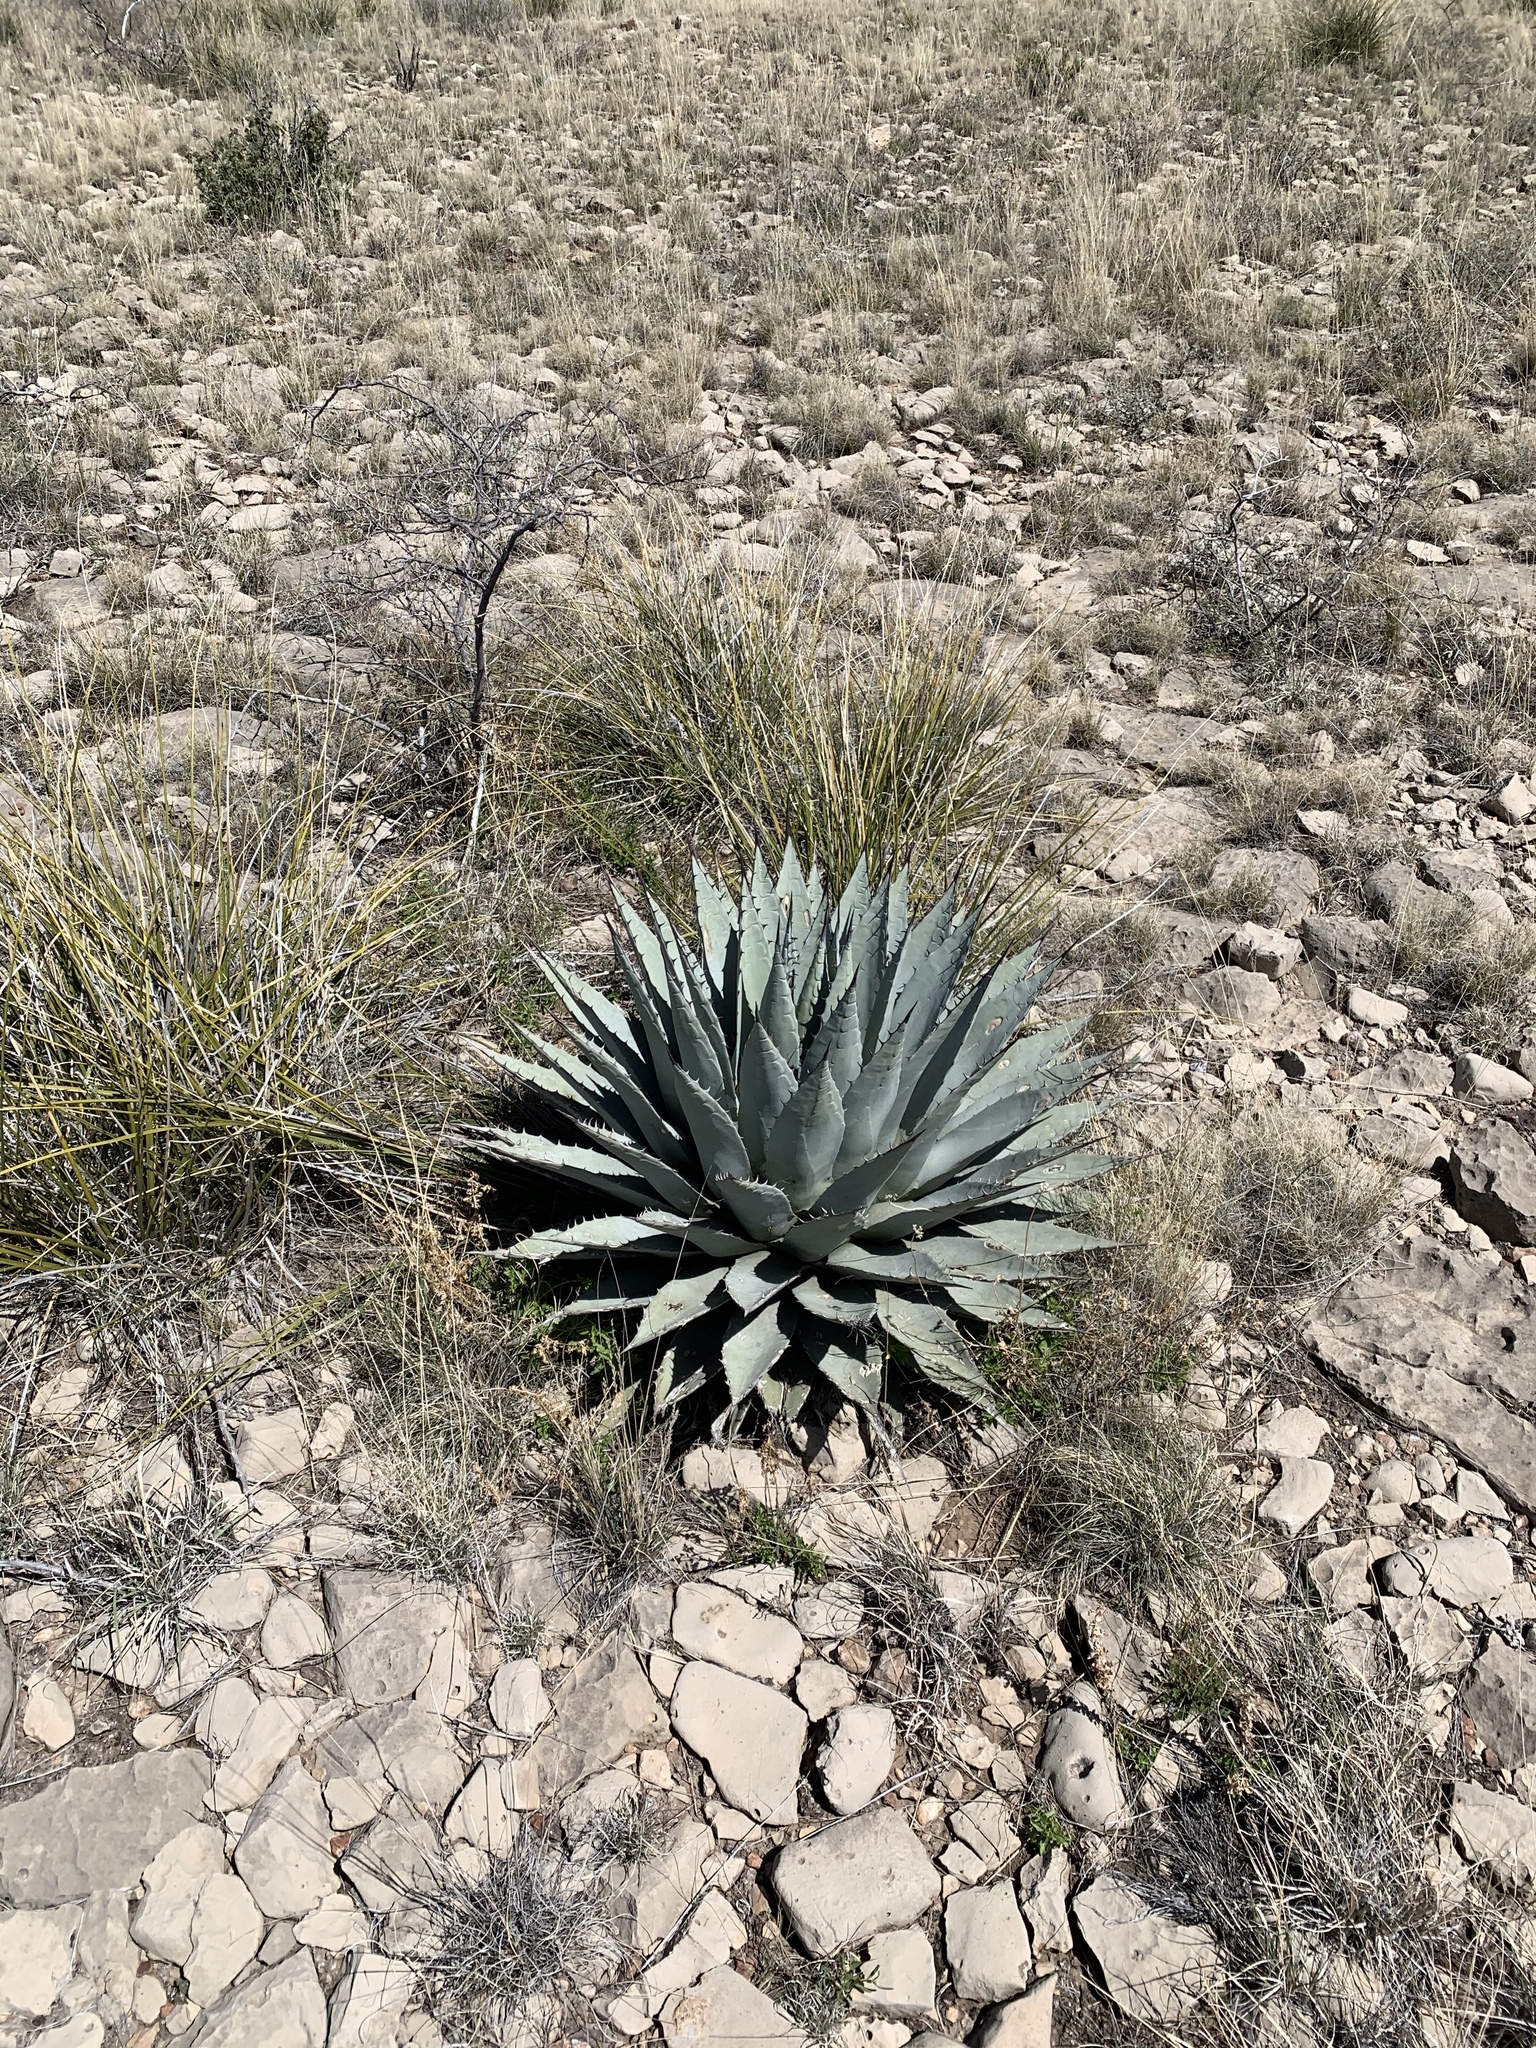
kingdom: Plantae
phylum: Tracheophyta
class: Liliopsida
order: Asparagales
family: Asparagaceae
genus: Agave
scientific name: Agave parryi
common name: Parry's agave
